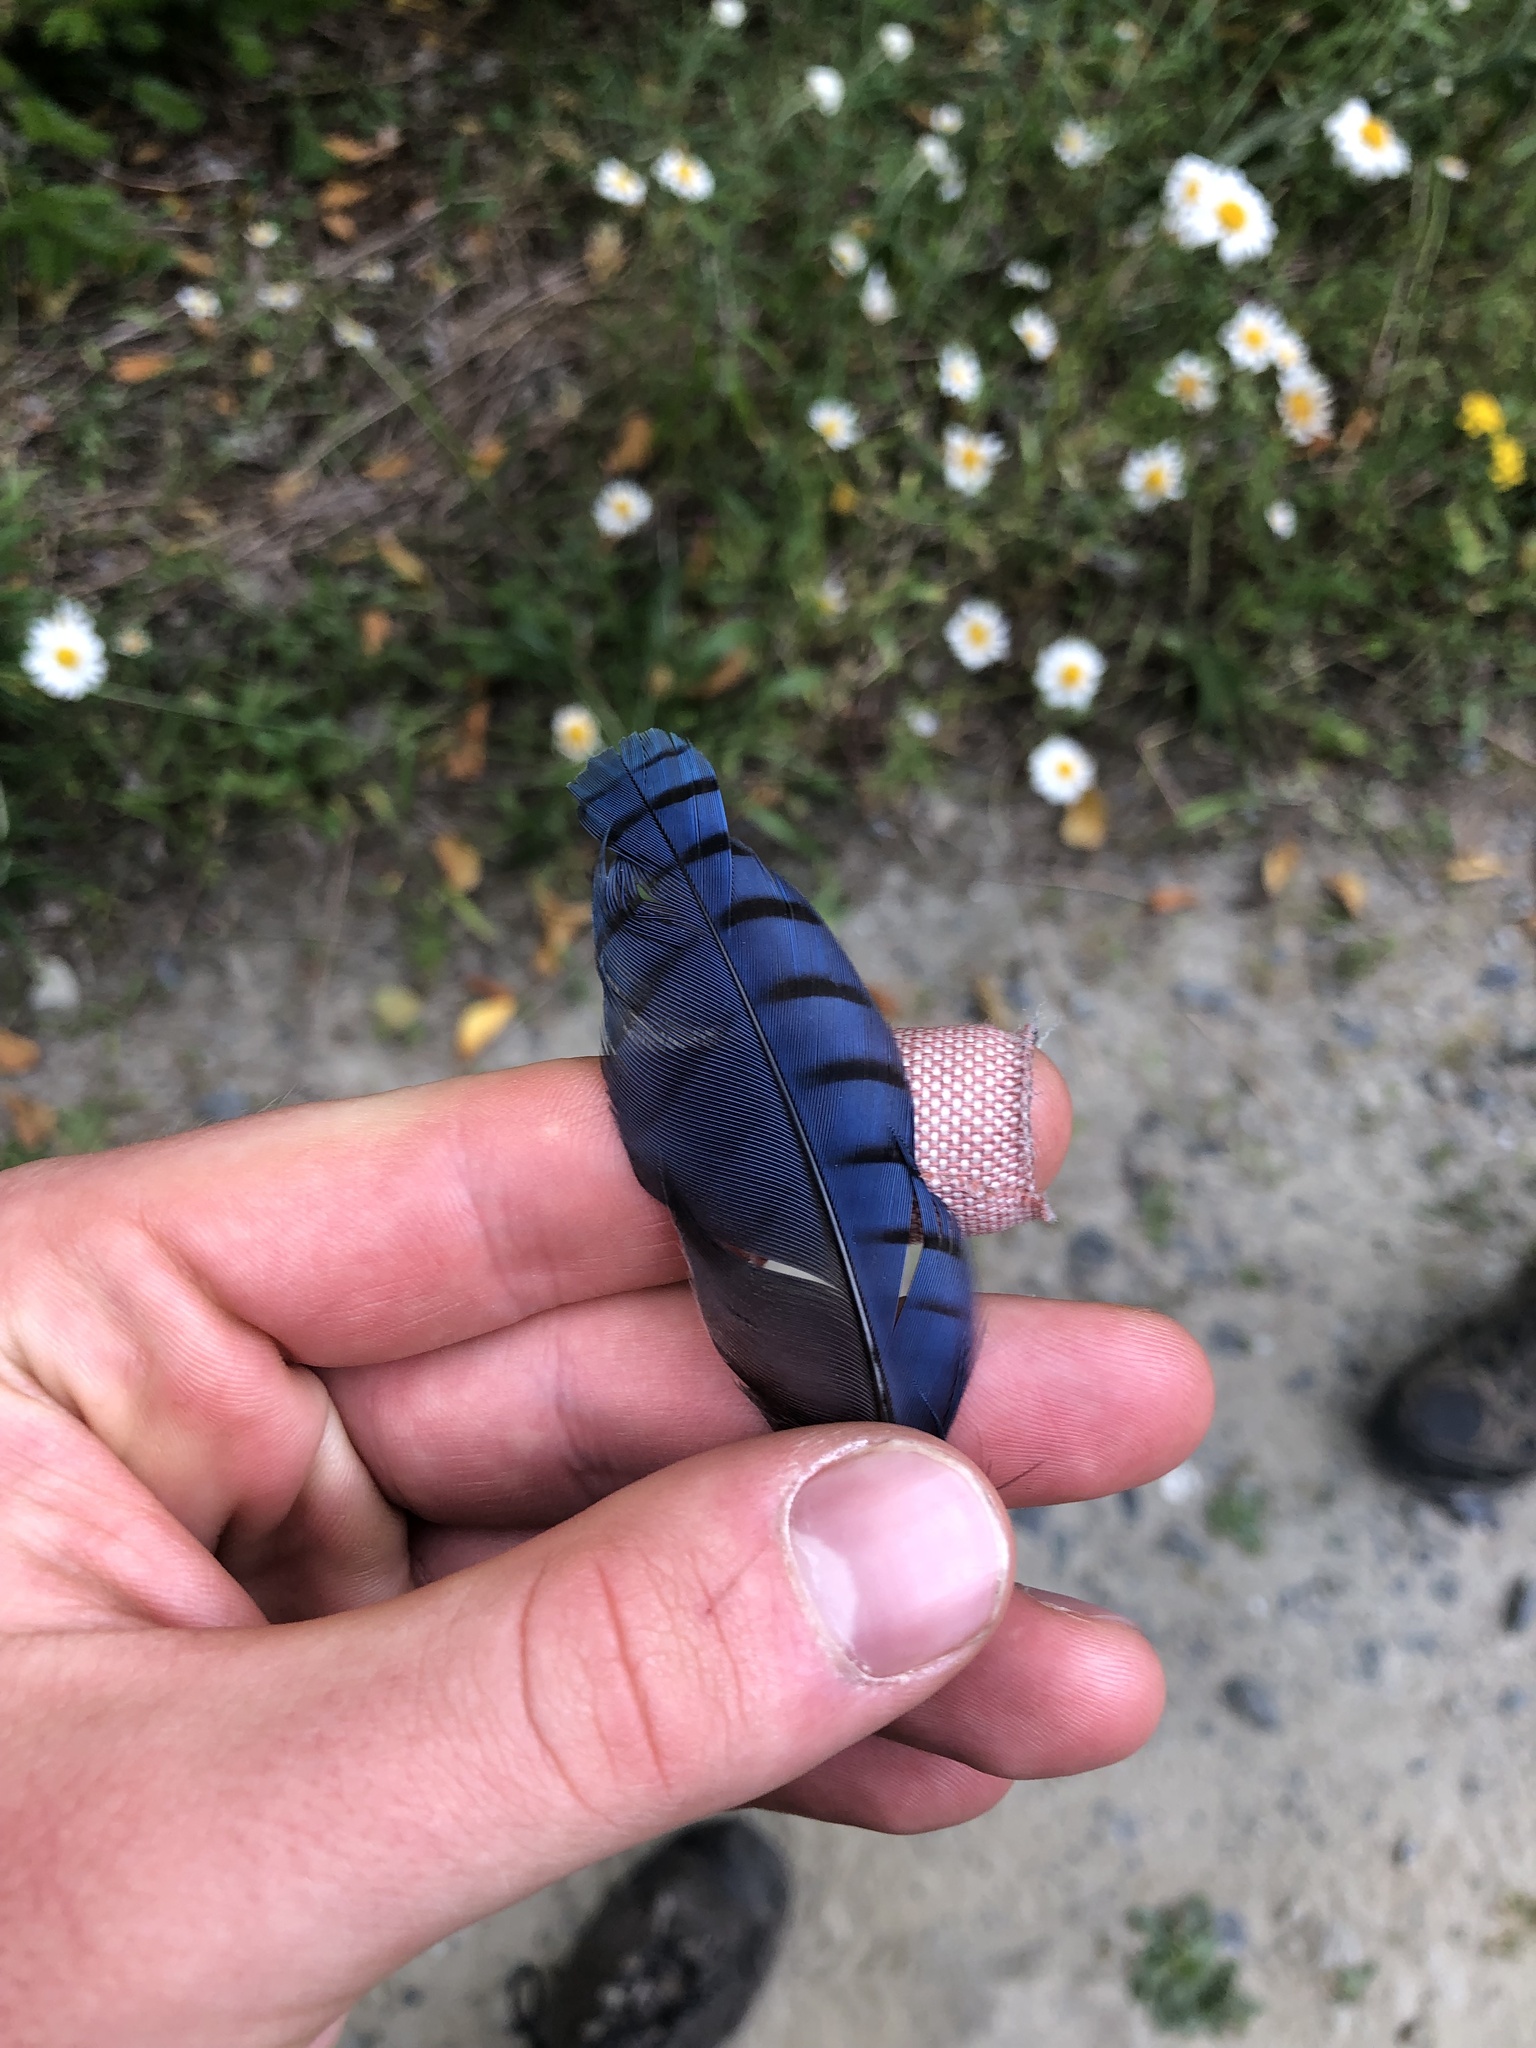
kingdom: Animalia
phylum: Chordata
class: Aves
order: Passeriformes
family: Corvidae
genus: Cyanocitta
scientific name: Cyanocitta stelleri
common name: Steller's jay
